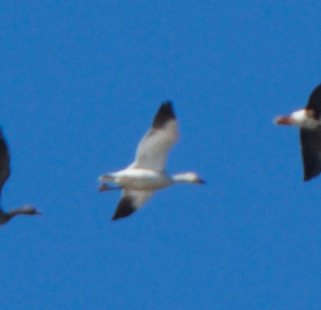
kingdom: Animalia
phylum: Chordata
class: Aves
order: Anseriformes
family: Anatidae
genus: Anser
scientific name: Anser caerulescens
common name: Snow goose
